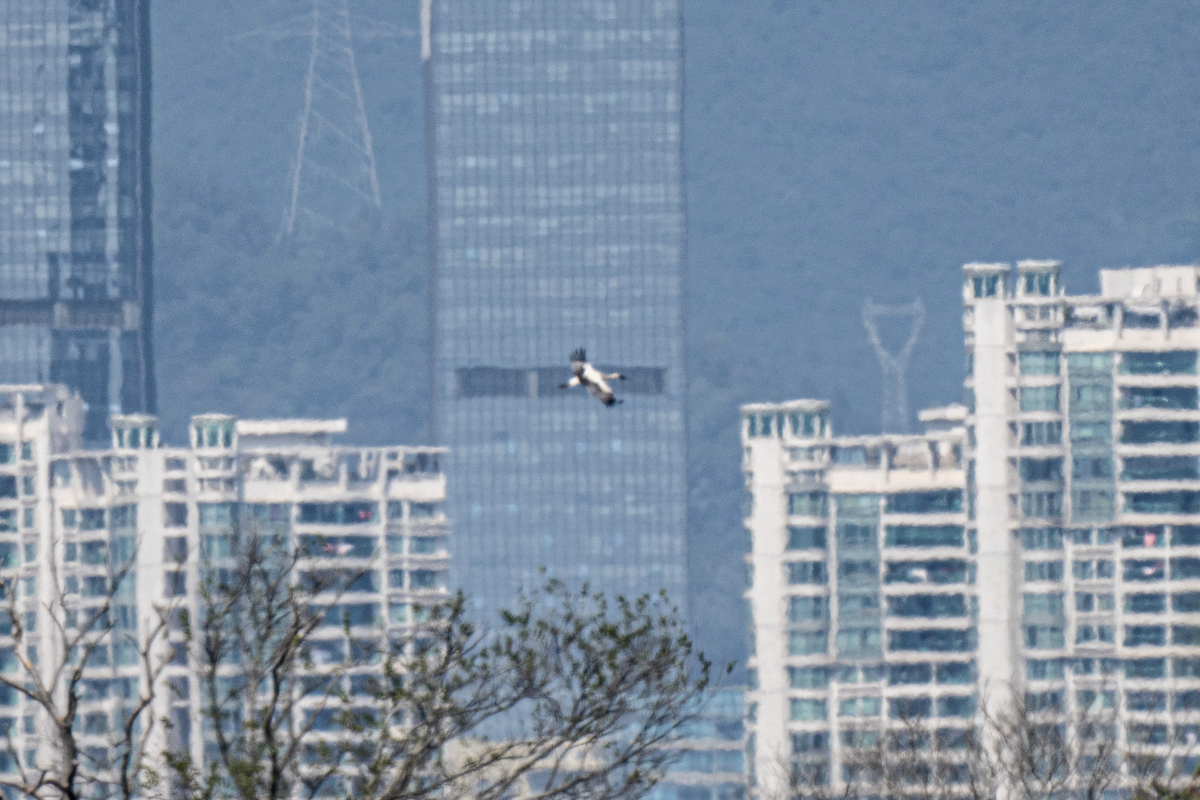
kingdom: Animalia
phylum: Chordata
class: Aves
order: Ciconiiformes
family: Ciconiidae
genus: Ciconia
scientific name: Ciconia boyciana
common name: Oriental stork
